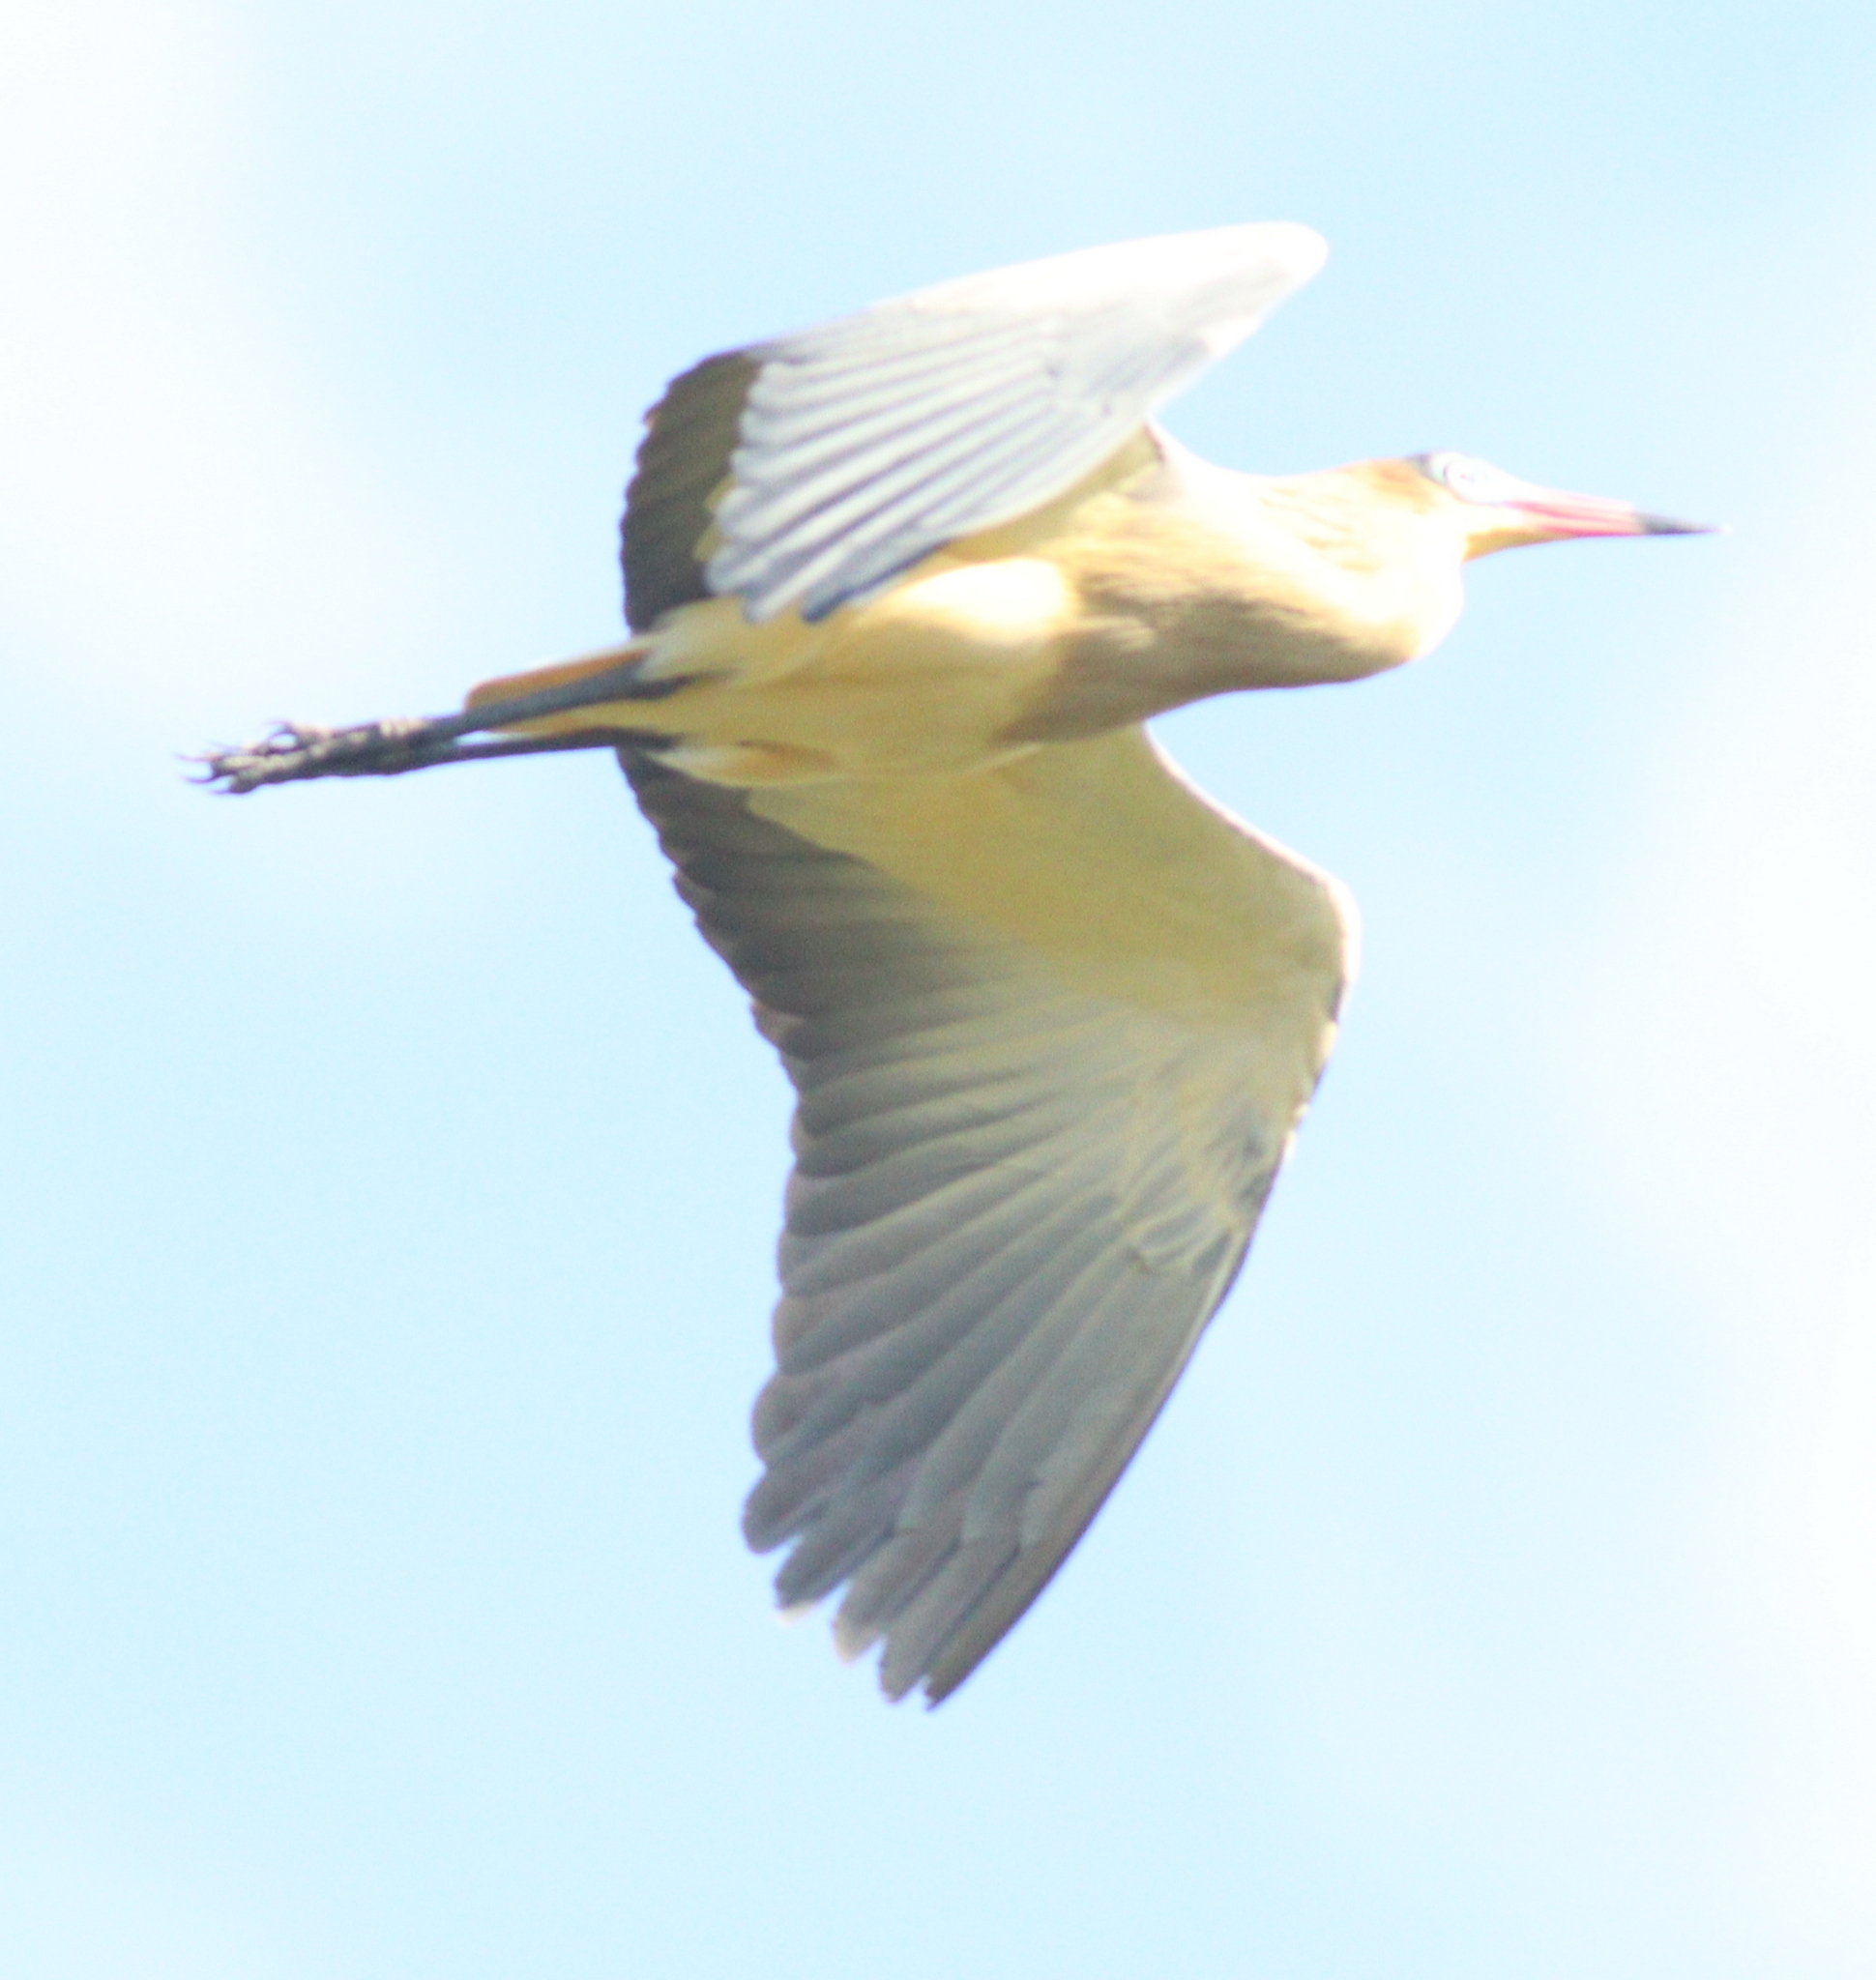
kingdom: Animalia
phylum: Chordata
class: Aves
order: Pelecaniformes
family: Ardeidae
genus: Syrigma
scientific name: Syrigma sibilatrix
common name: Whistling heron
